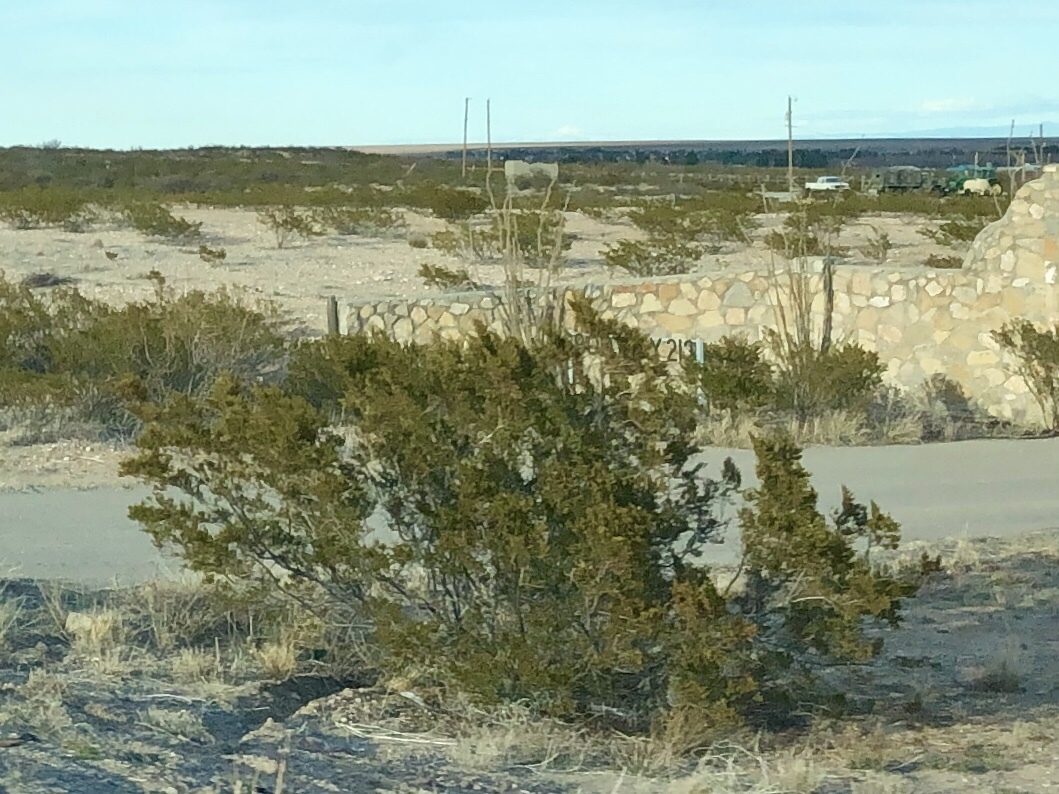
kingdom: Plantae
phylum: Tracheophyta
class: Magnoliopsida
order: Zygophyllales
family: Zygophyllaceae
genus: Larrea
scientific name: Larrea tridentata
